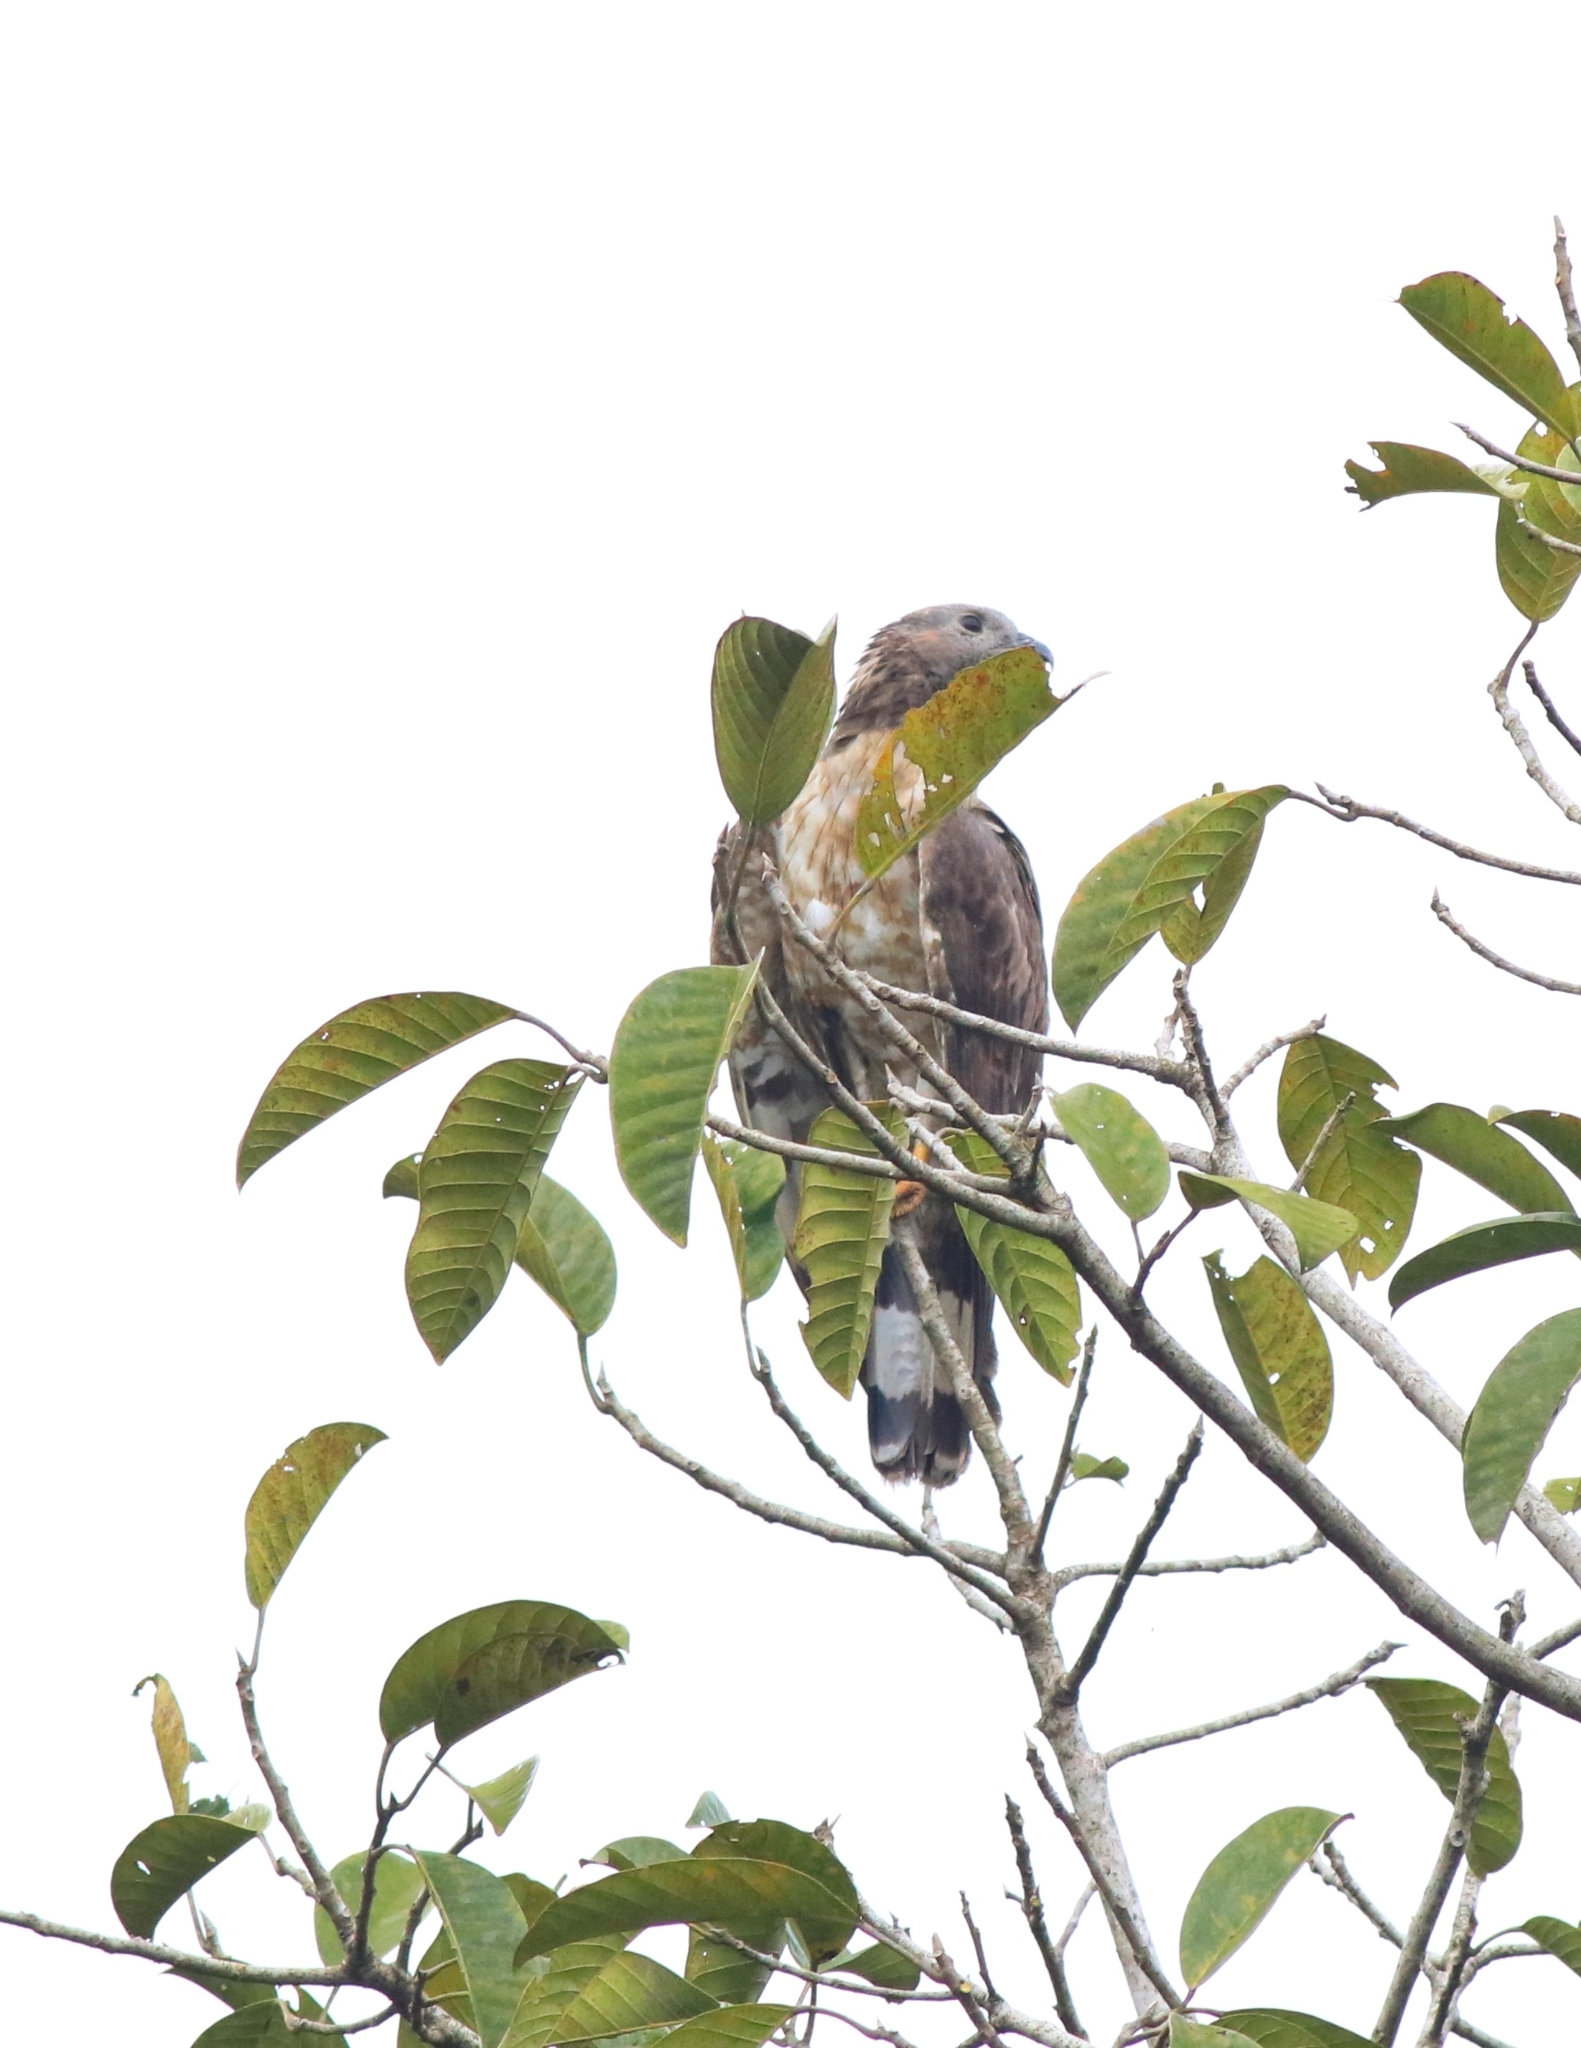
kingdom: Animalia
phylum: Chordata
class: Aves
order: Accipitriformes
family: Accipitridae
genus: Pernis
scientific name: Pernis ptilorhynchus
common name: Crested honey buzzard
